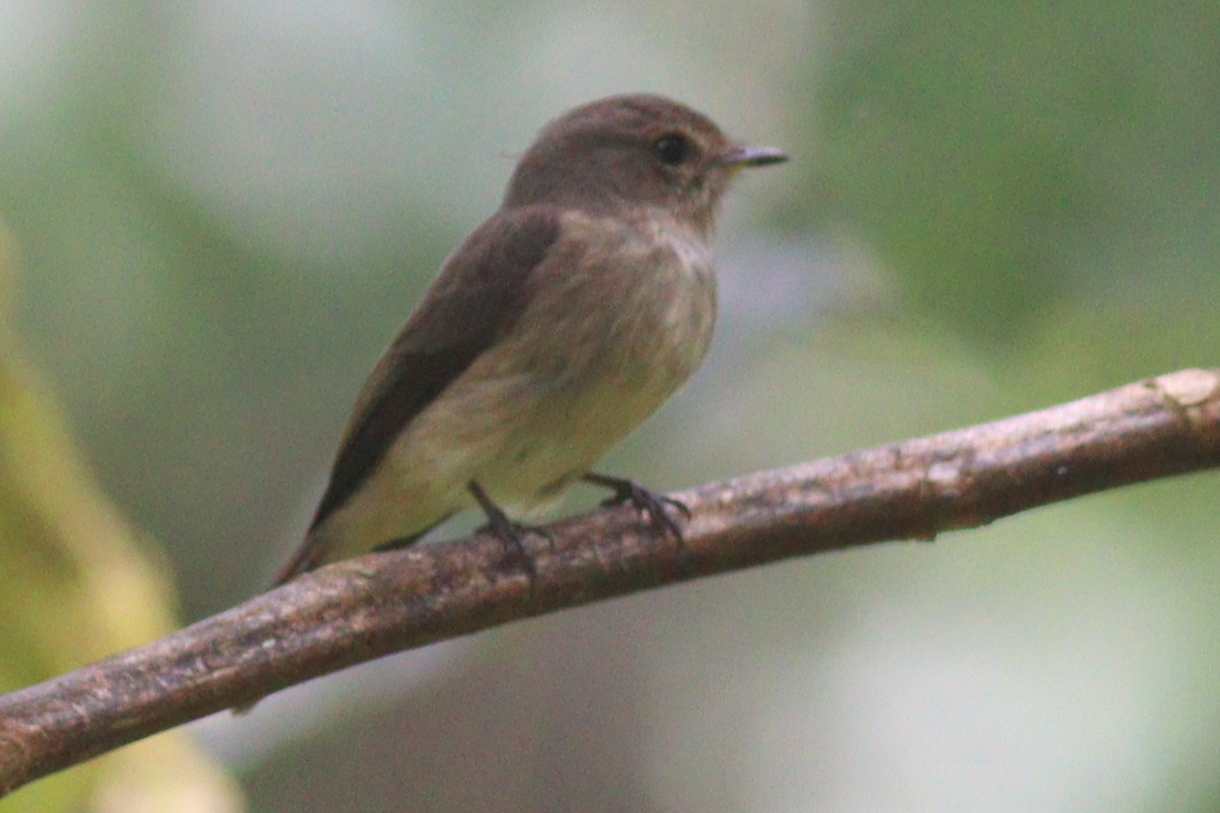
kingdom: Animalia
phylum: Chordata
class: Aves
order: Passeriformes
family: Muscicapidae
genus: Muscicapa
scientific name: Muscicapa adusta
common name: African dusky flycatcher
